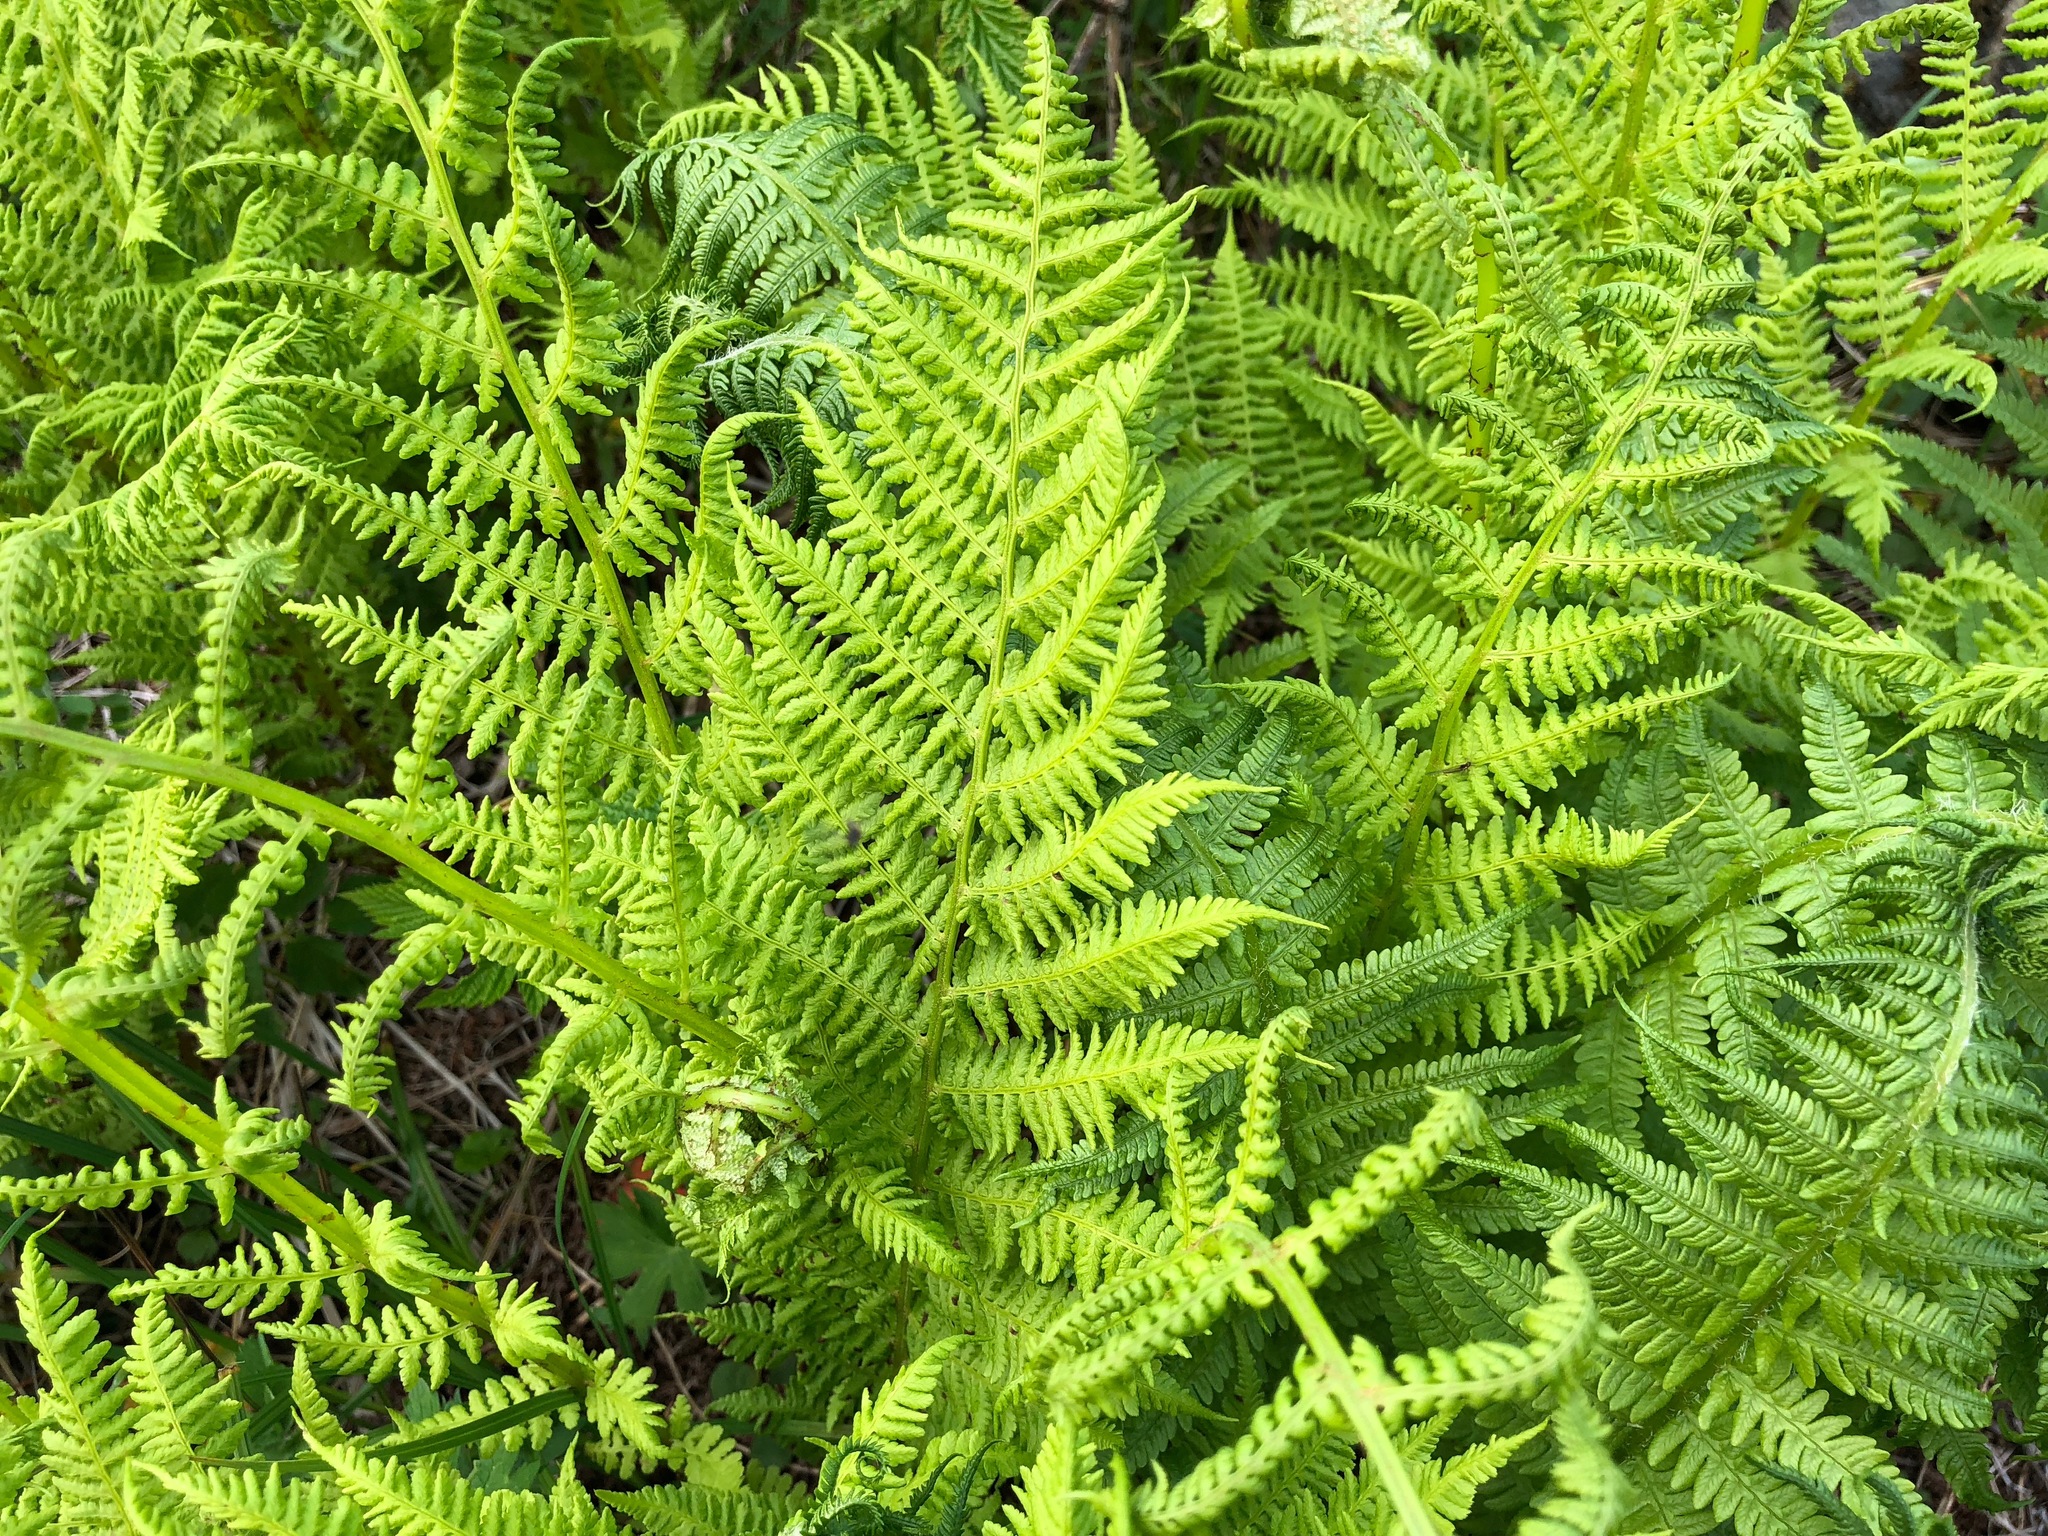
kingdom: Plantae
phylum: Tracheophyta
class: Polypodiopsida
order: Polypodiales
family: Athyriaceae
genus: Athyrium
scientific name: Athyrium filix-femina
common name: Lady fern
